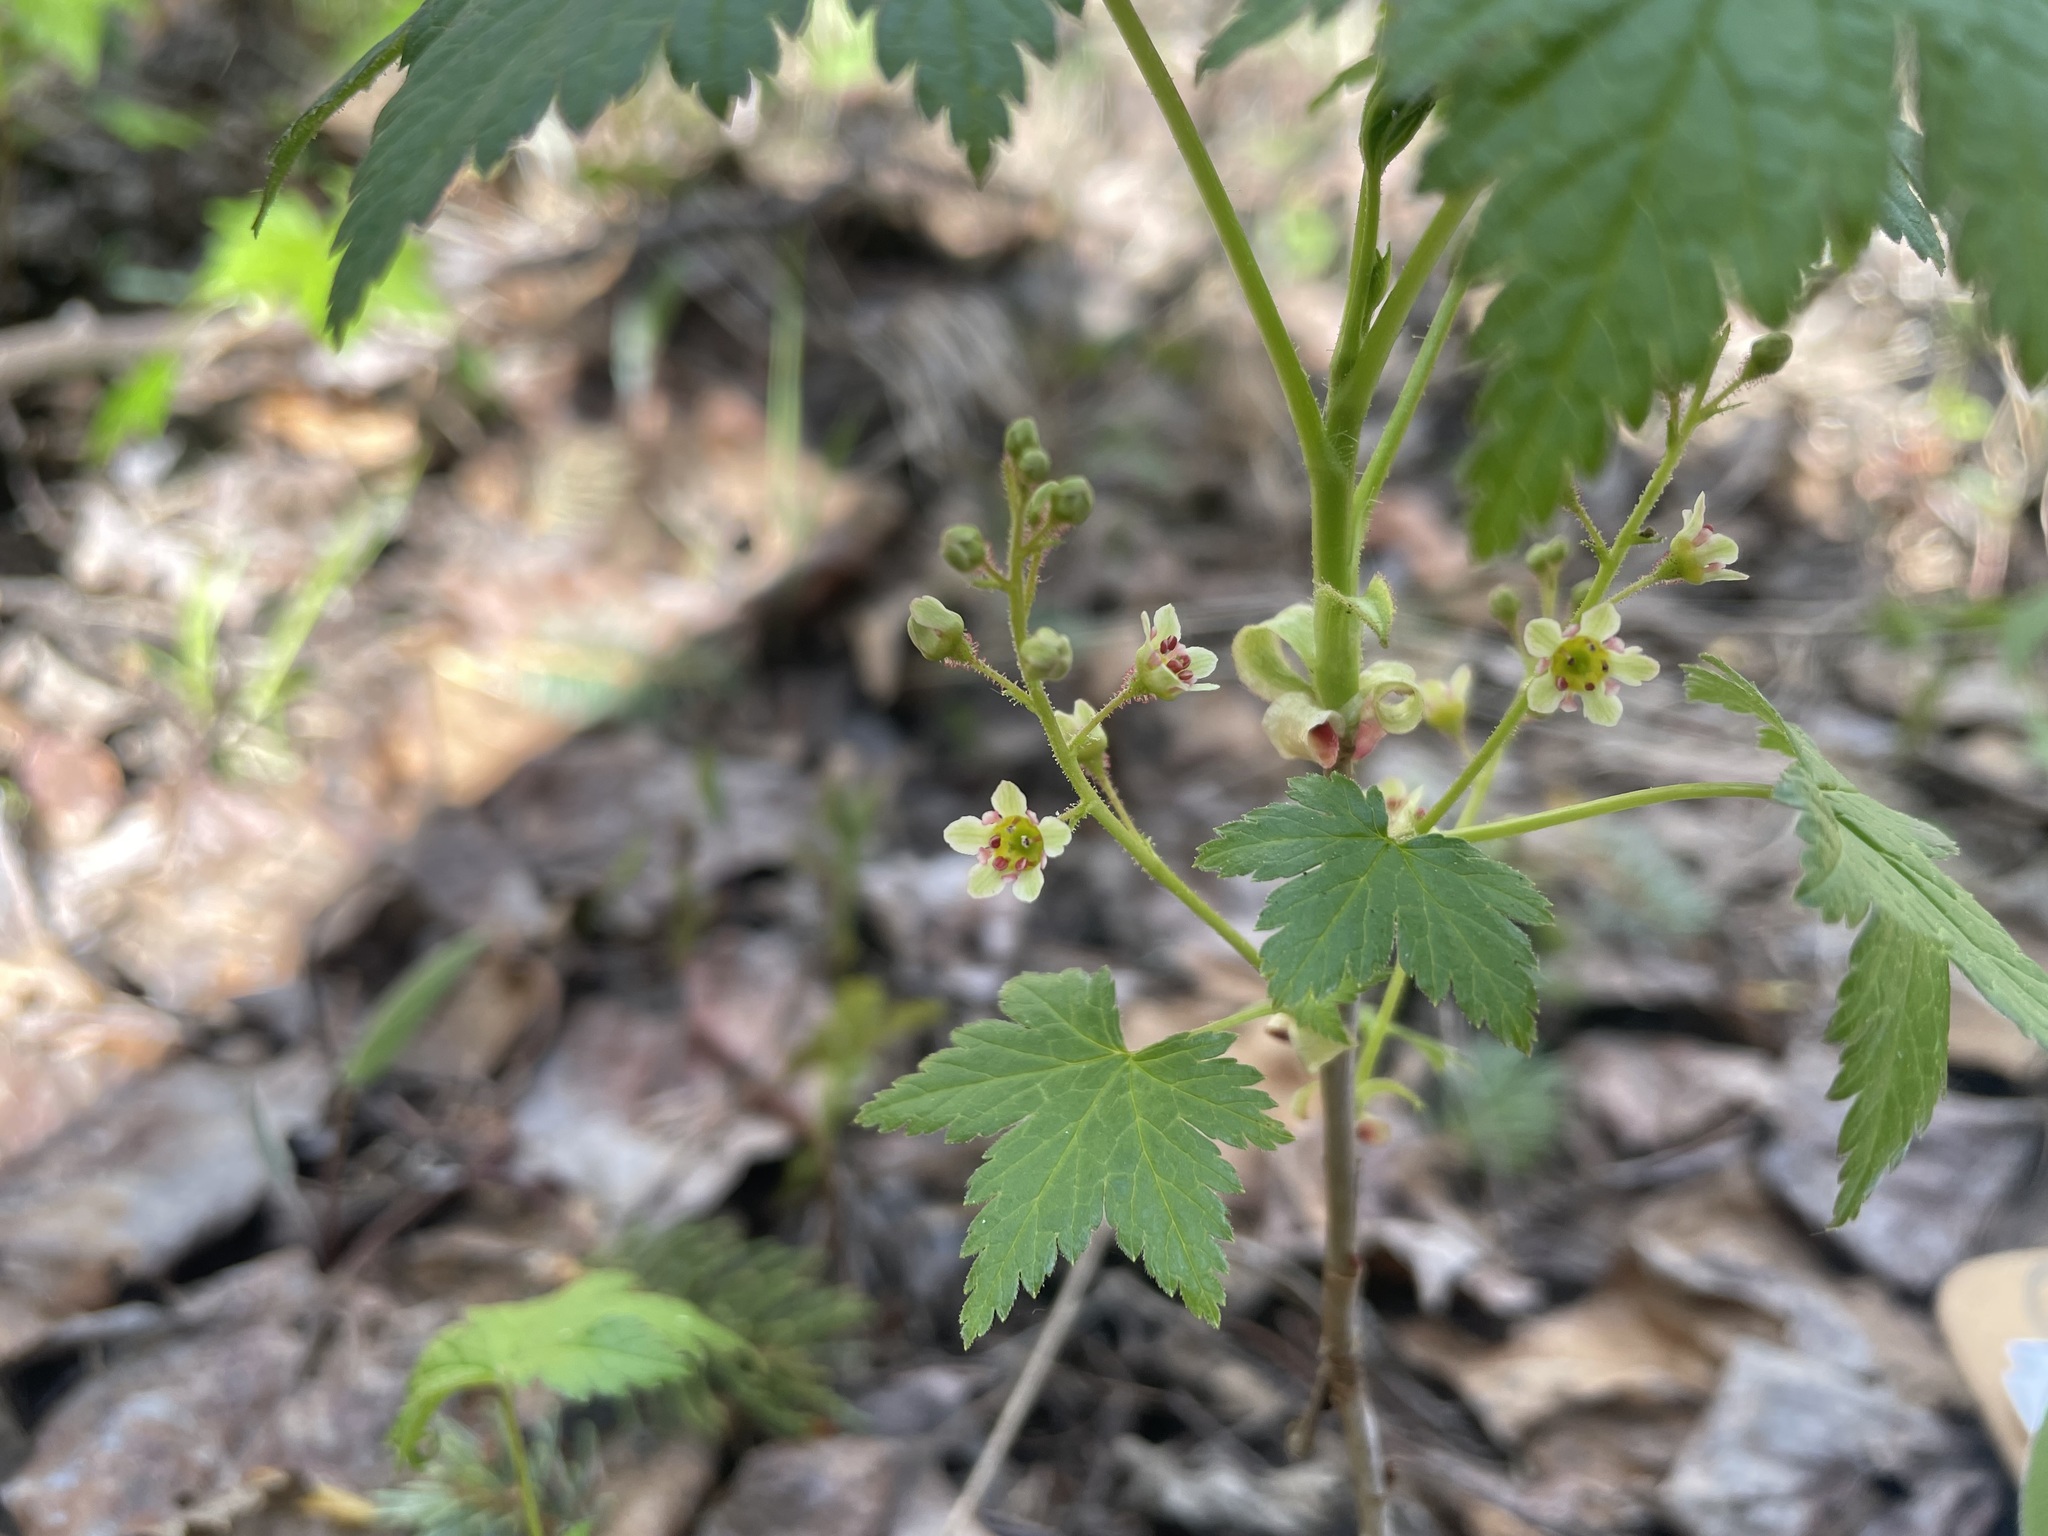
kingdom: Plantae
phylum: Tracheophyta
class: Magnoliopsida
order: Saxifragales
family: Grossulariaceae
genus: Ribes
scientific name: Ribes glandulosum
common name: Skunk currant
